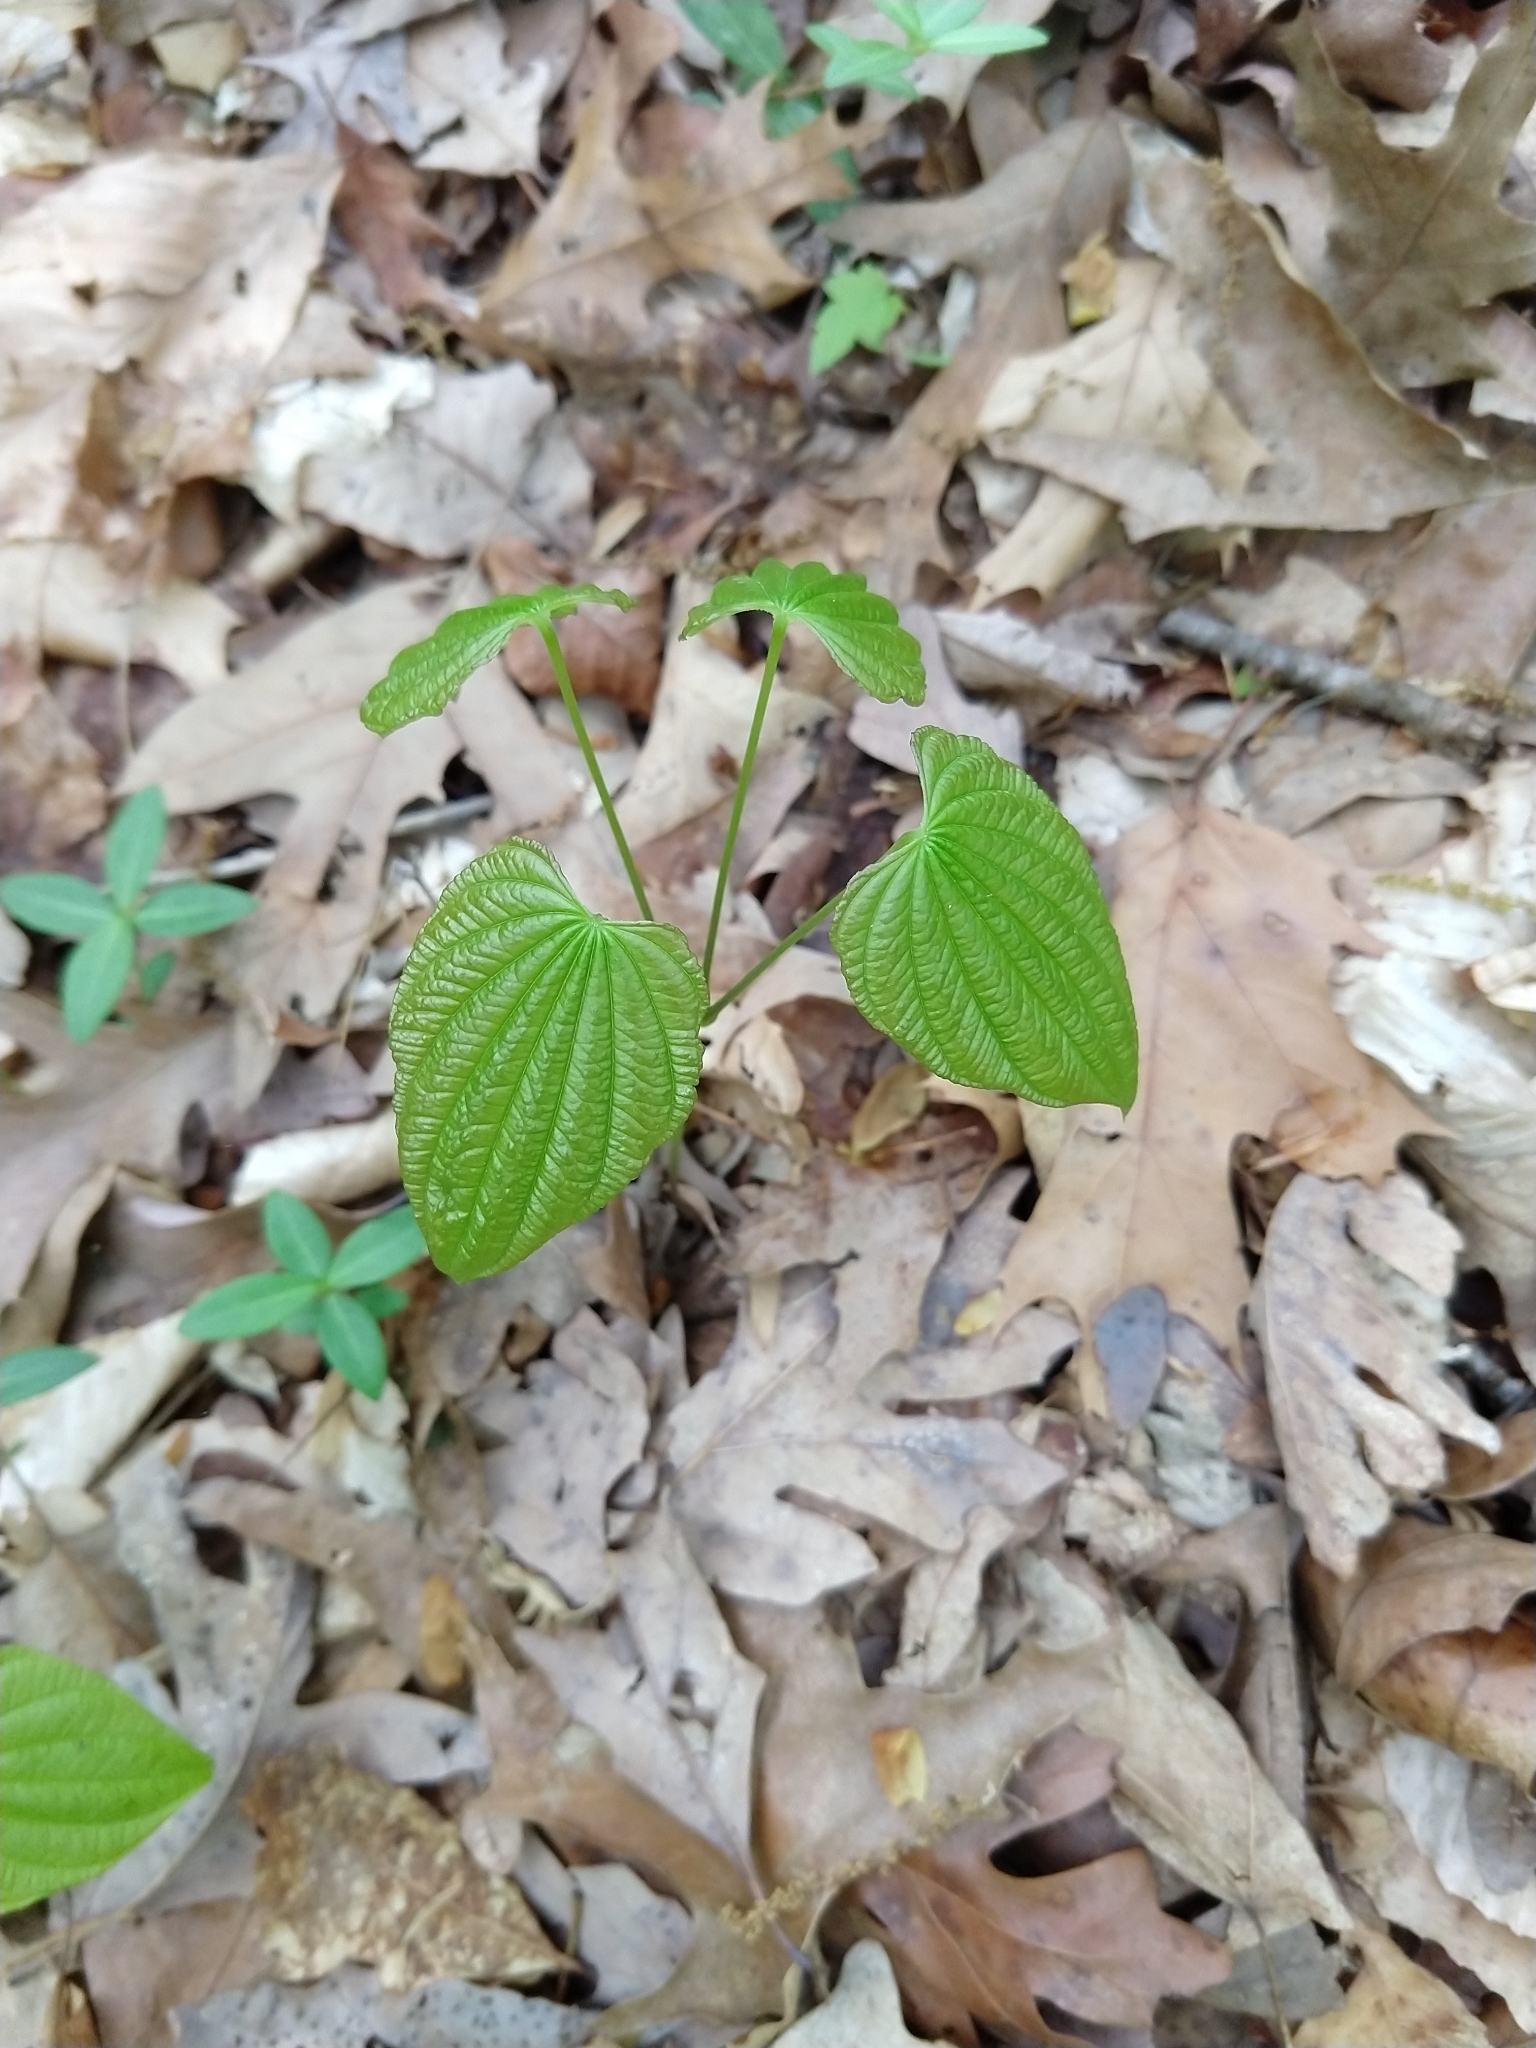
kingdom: Plantae
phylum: Tracheophyta
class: Liliopsida
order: Dioscoreales
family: Dioscoreaceae
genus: Dioscorea
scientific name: Dioscorea villosa
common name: Wild yam
